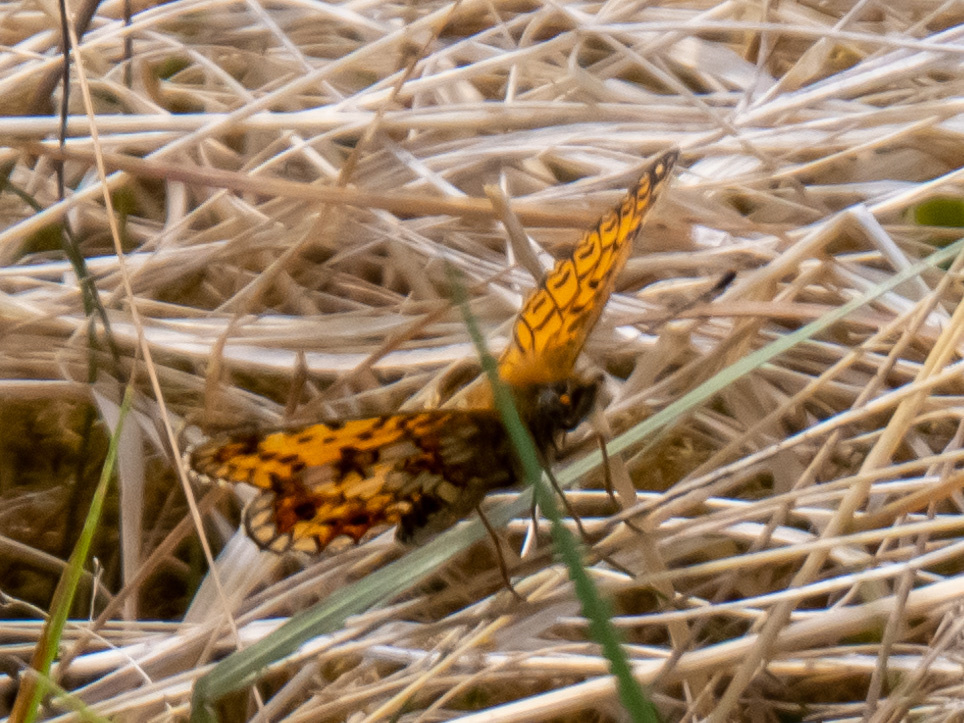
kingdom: Animalia
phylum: Arthropoda
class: Insecta
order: Lepidoptera
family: Nymphalidae
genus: Boloria
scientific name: Boloria selene
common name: Small pearl-bordered fritillary
